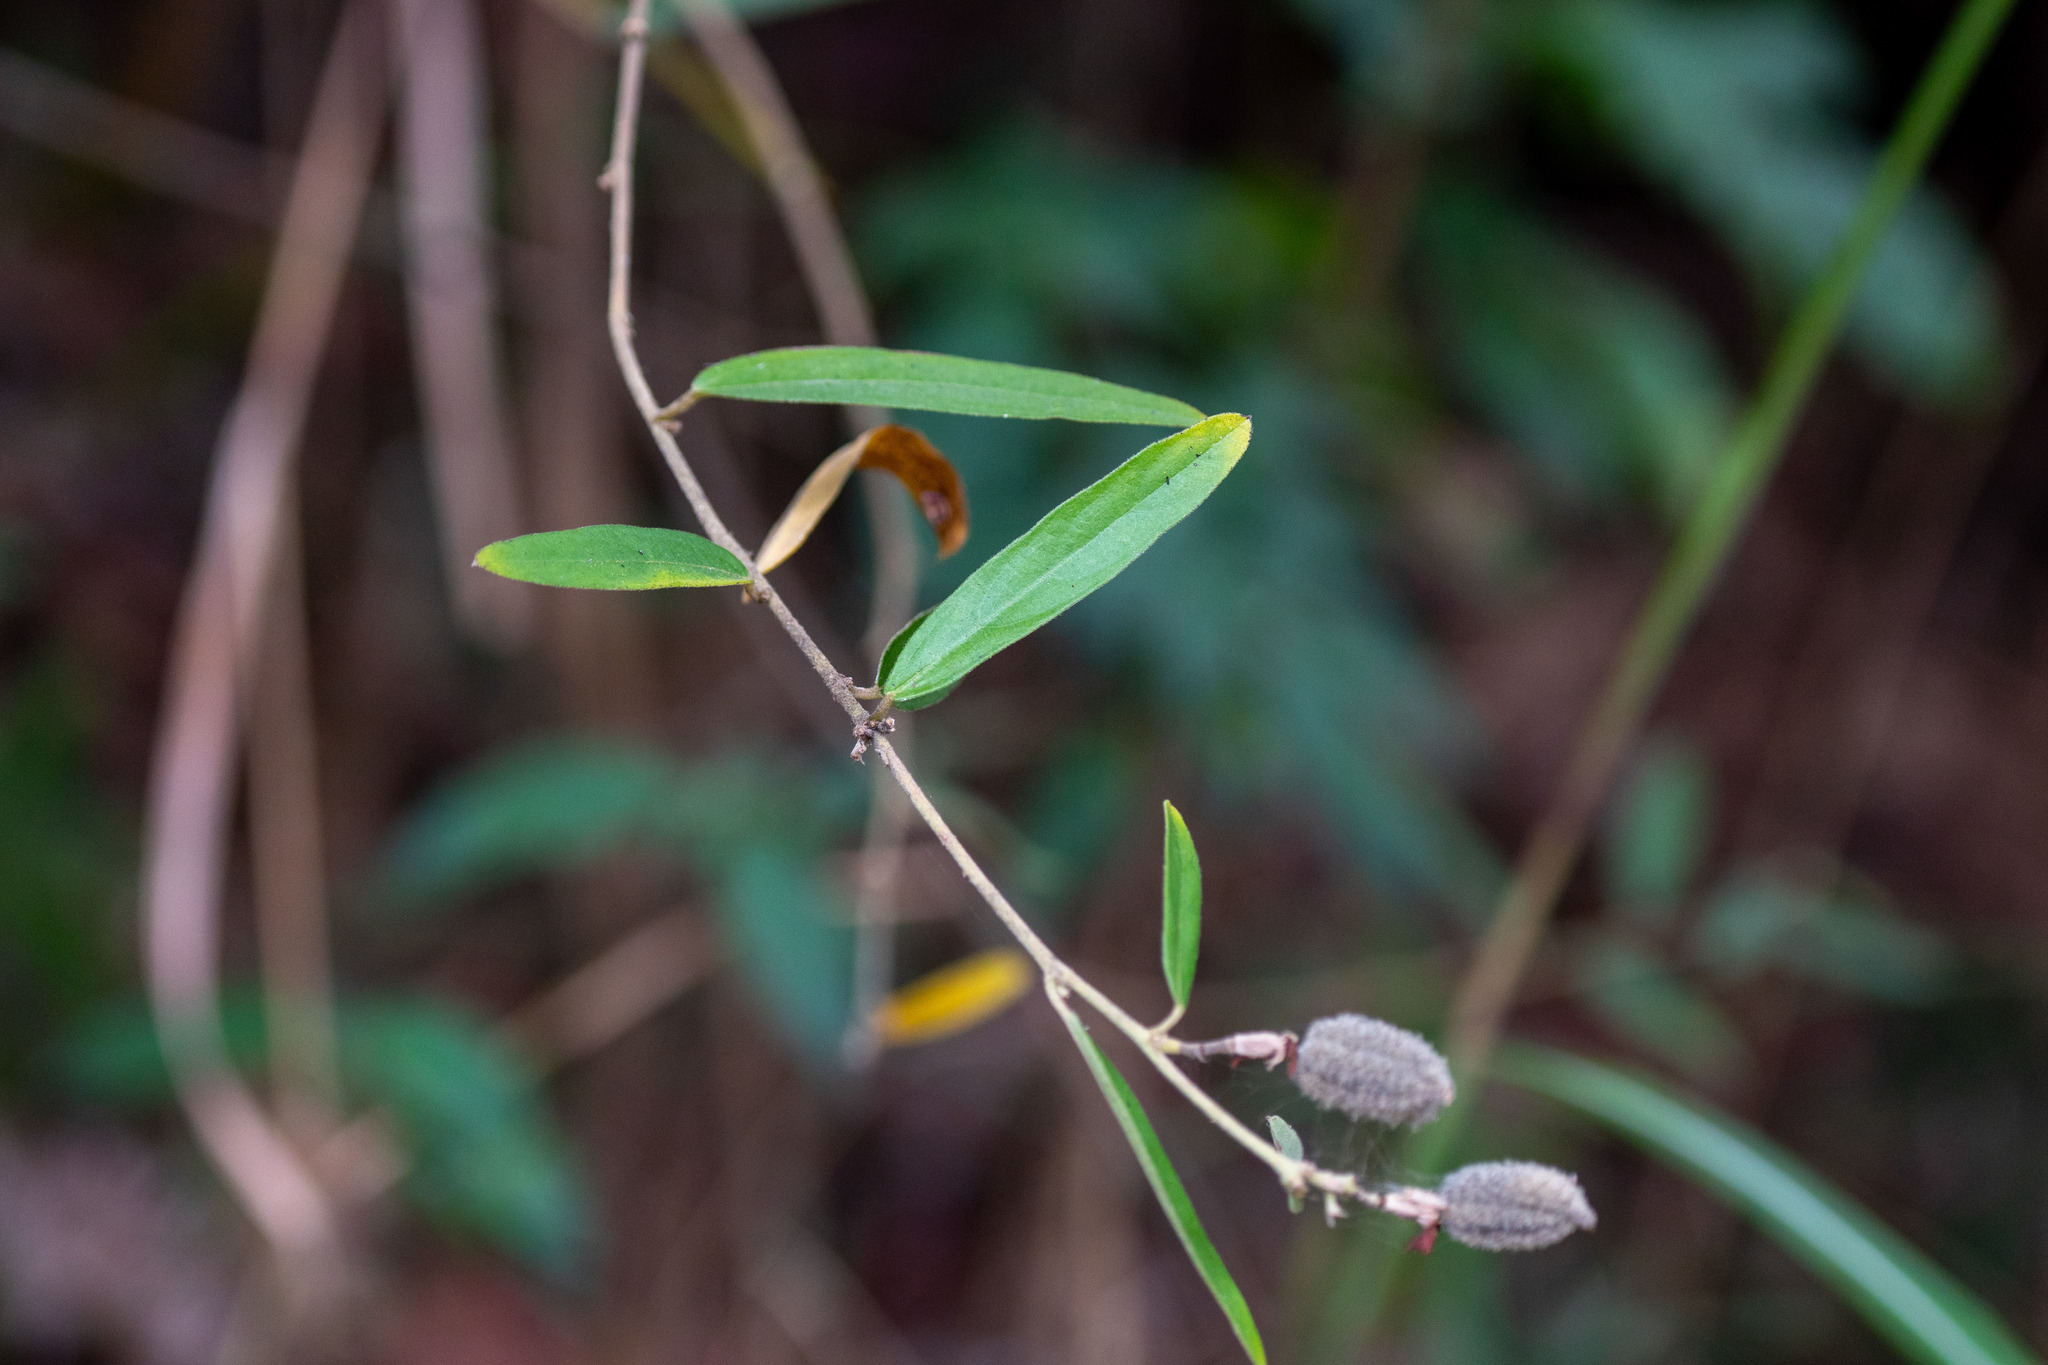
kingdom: Plantae
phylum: Tracheophyta
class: Magnoliopsida
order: Malvales
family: Malvaceae
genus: Helicteres
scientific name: Helicteres angustifolia
